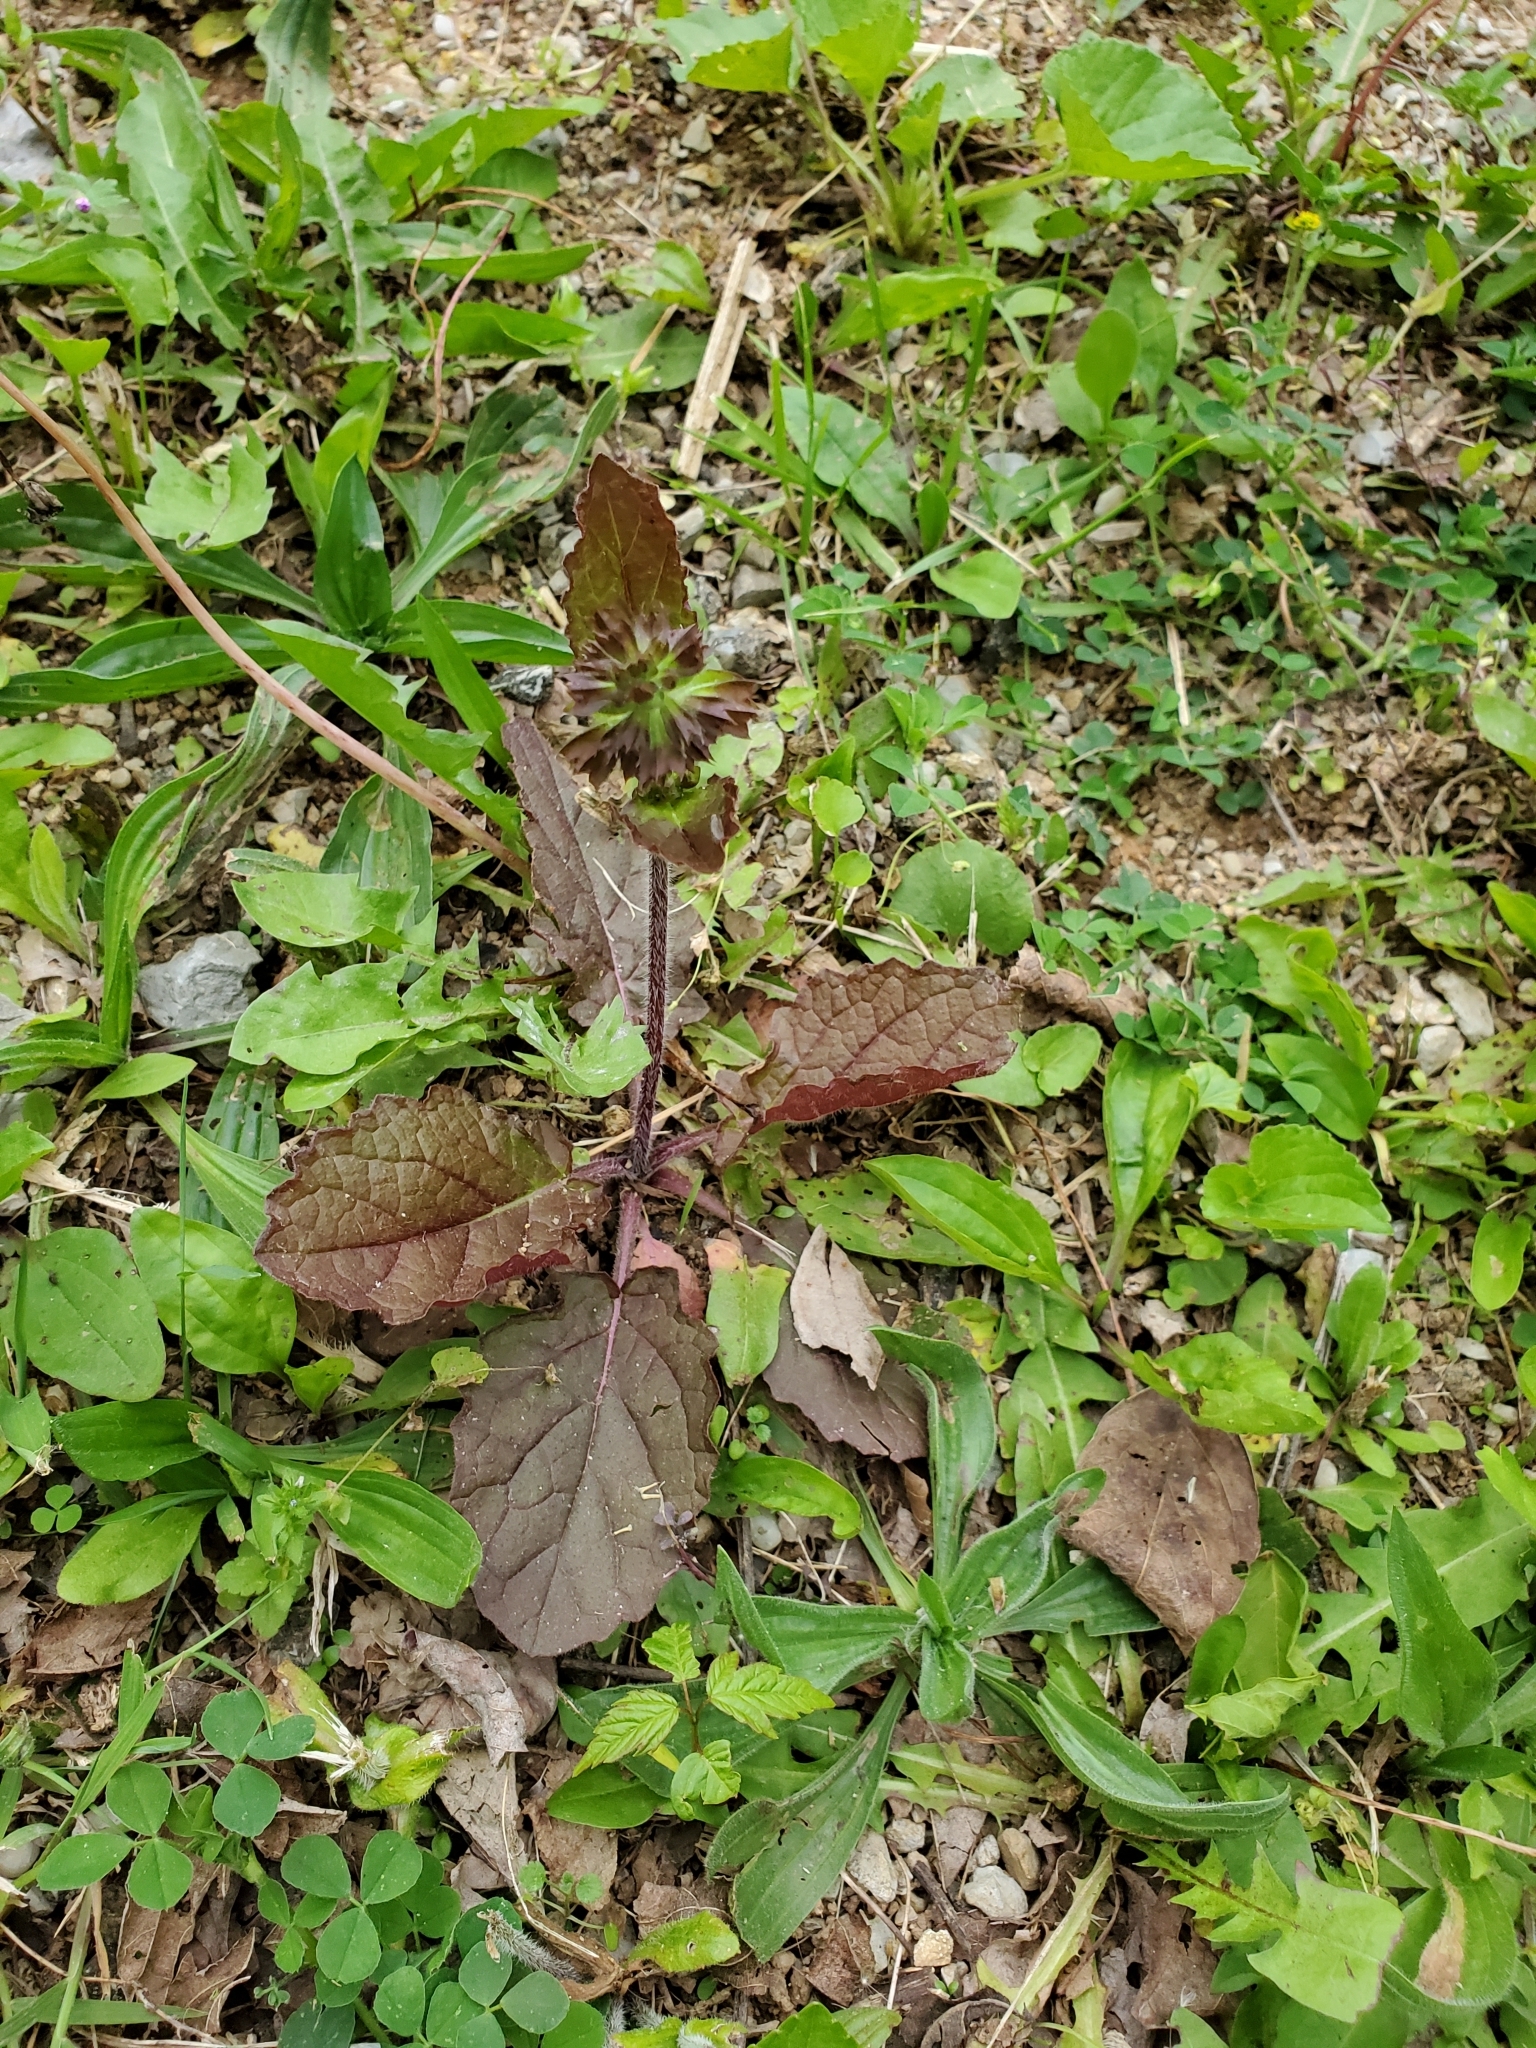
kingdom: Plantae
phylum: Tracheophyta
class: Magnoliopsida
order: Lamiales
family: Lamiaceae
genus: Salvia
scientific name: Salvia lyrata
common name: Cancerweed
